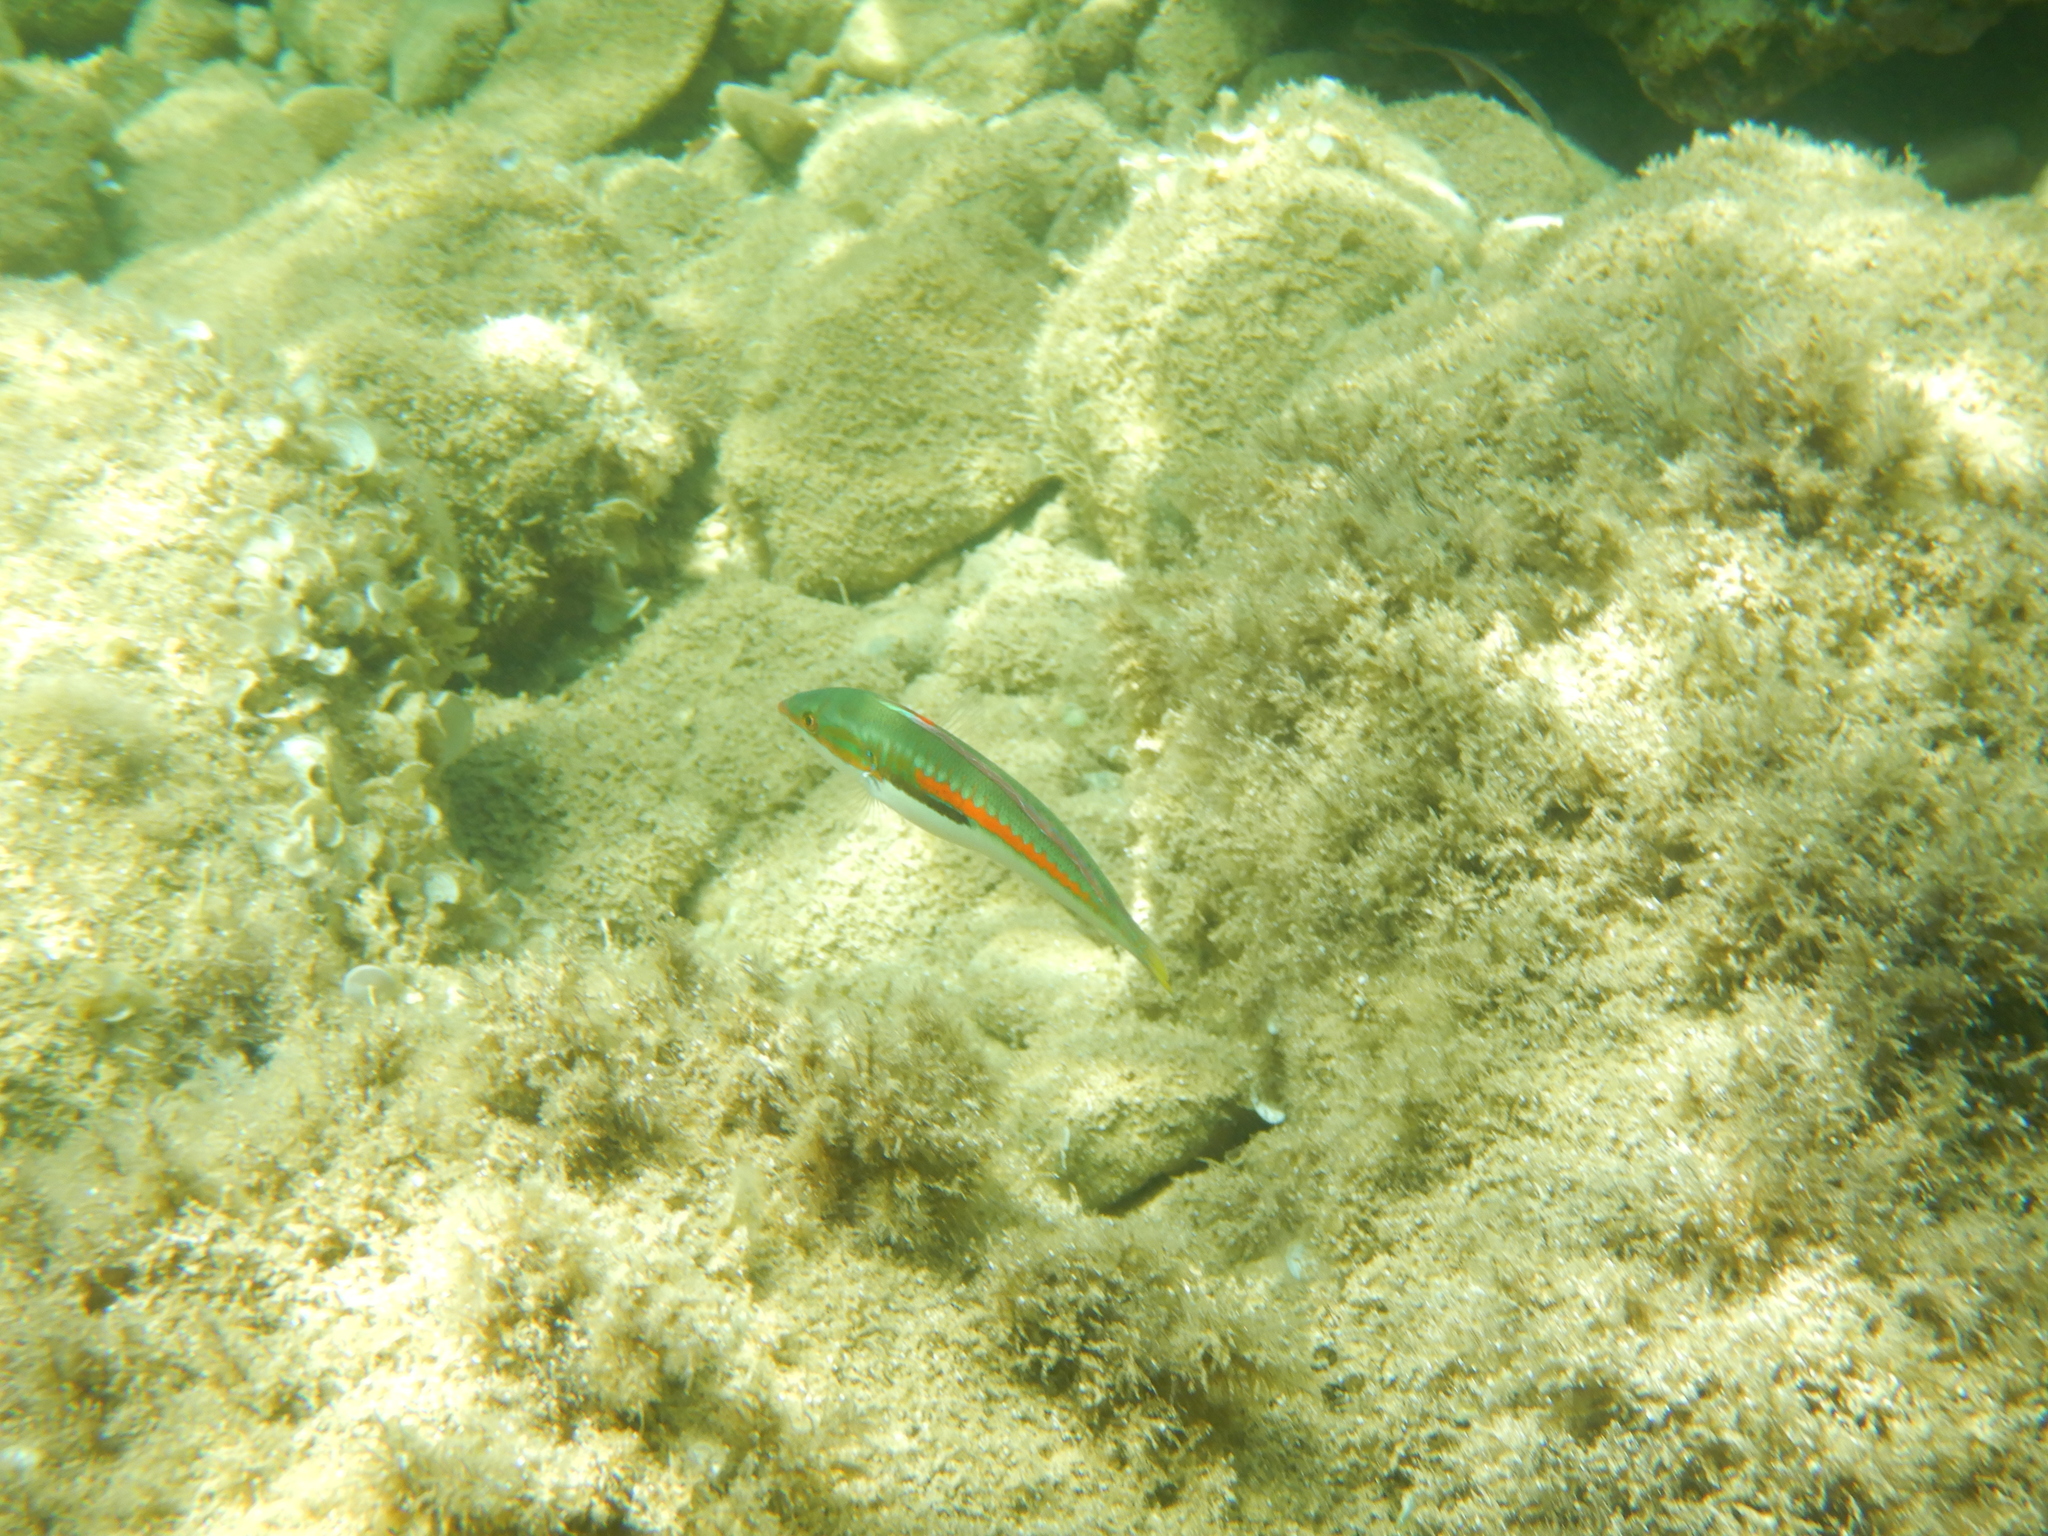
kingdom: Animalia
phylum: Chordata
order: Perciformes
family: Labridae
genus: Coris
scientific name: Coris julis
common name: Rainbow wrasse
